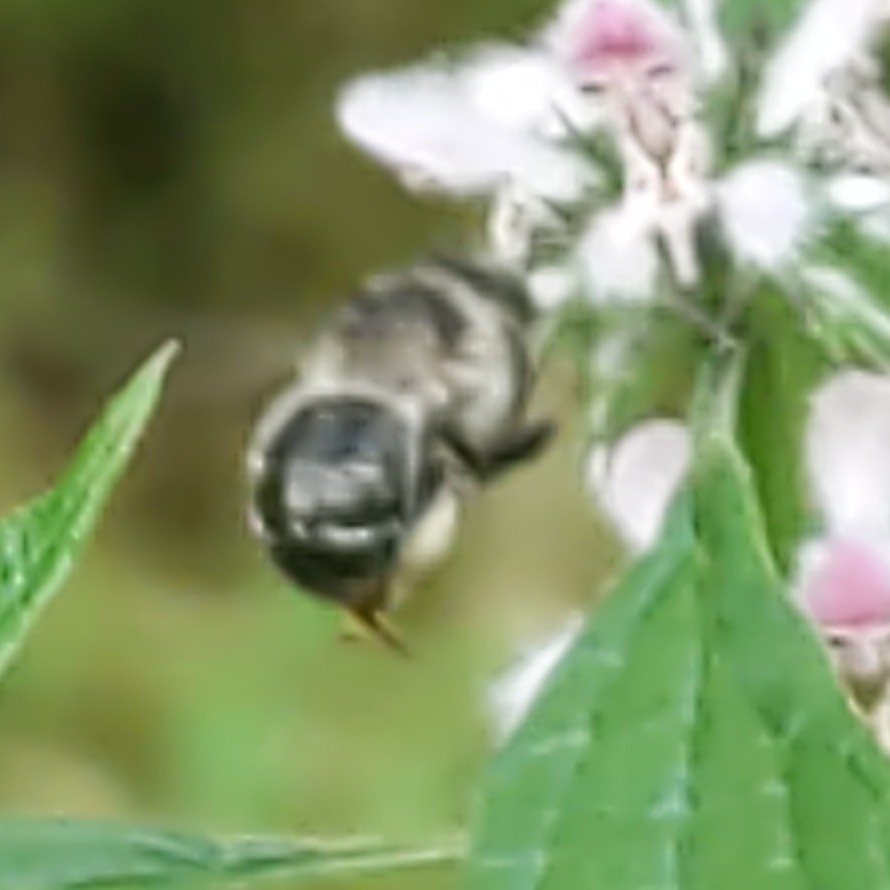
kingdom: Animalia
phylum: Arthropoda
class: Insecta
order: Hymenoptera
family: Apidae
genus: Anthophora
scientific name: Anthophora terminalis
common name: Orange-tipped wood-digger bee
